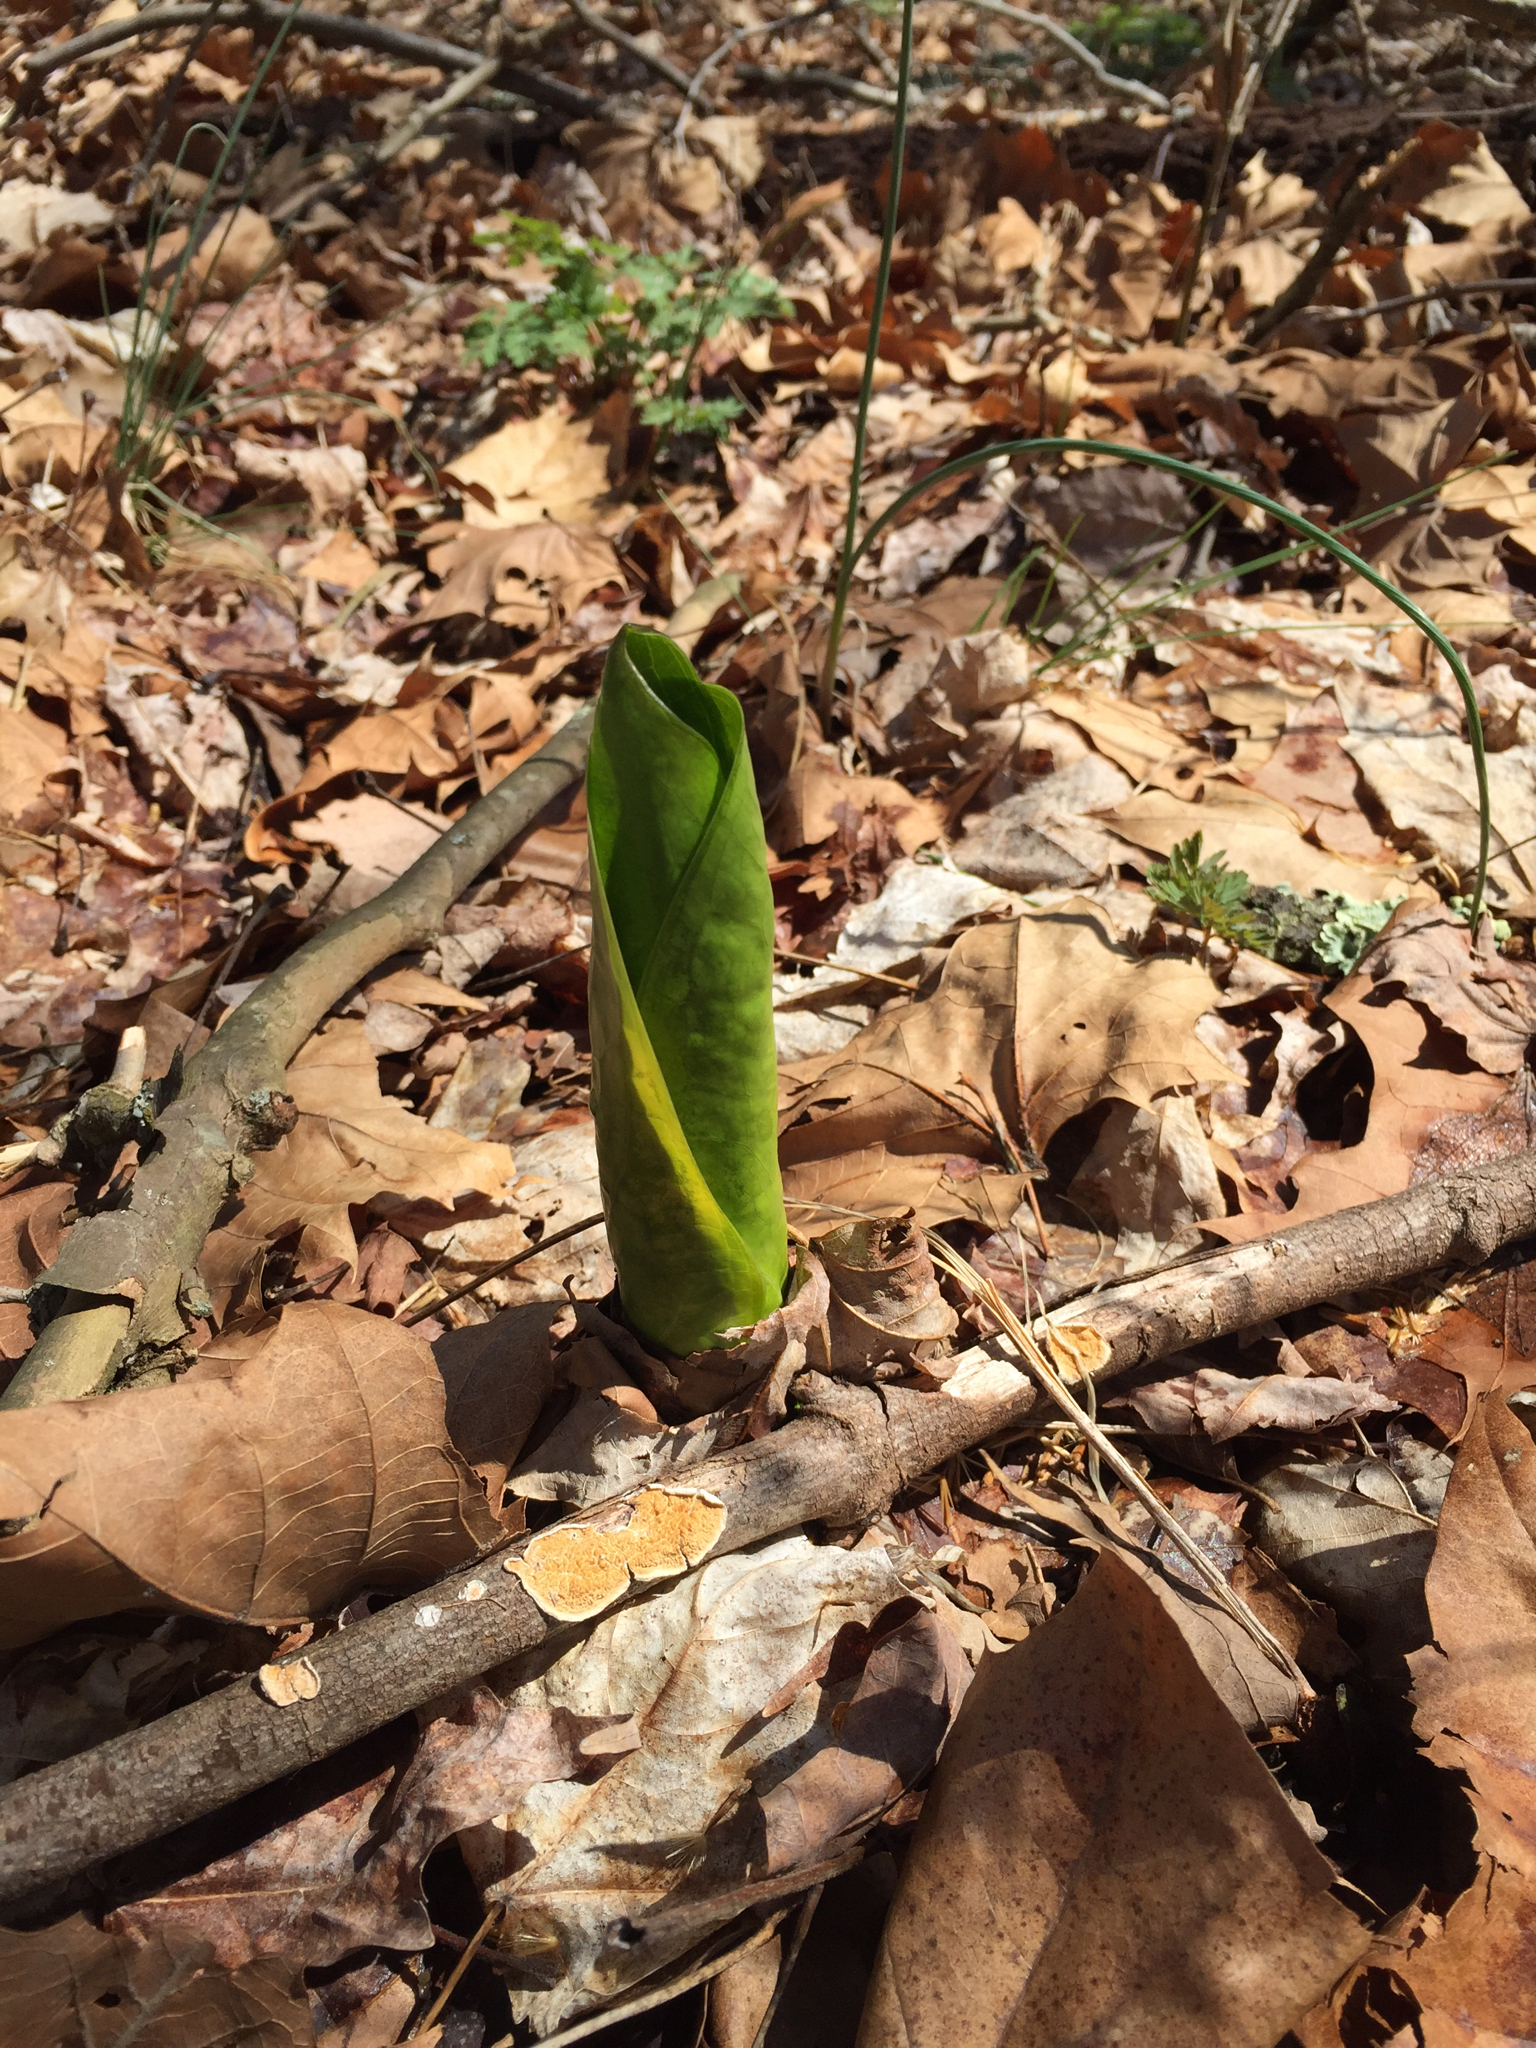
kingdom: Plantae
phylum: Tracheophyta
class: Liliopsida
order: Alismatales
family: Araceae
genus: Symplocarpus
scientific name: Symplocarpus foetidus
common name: Eastern skunk cabbage
